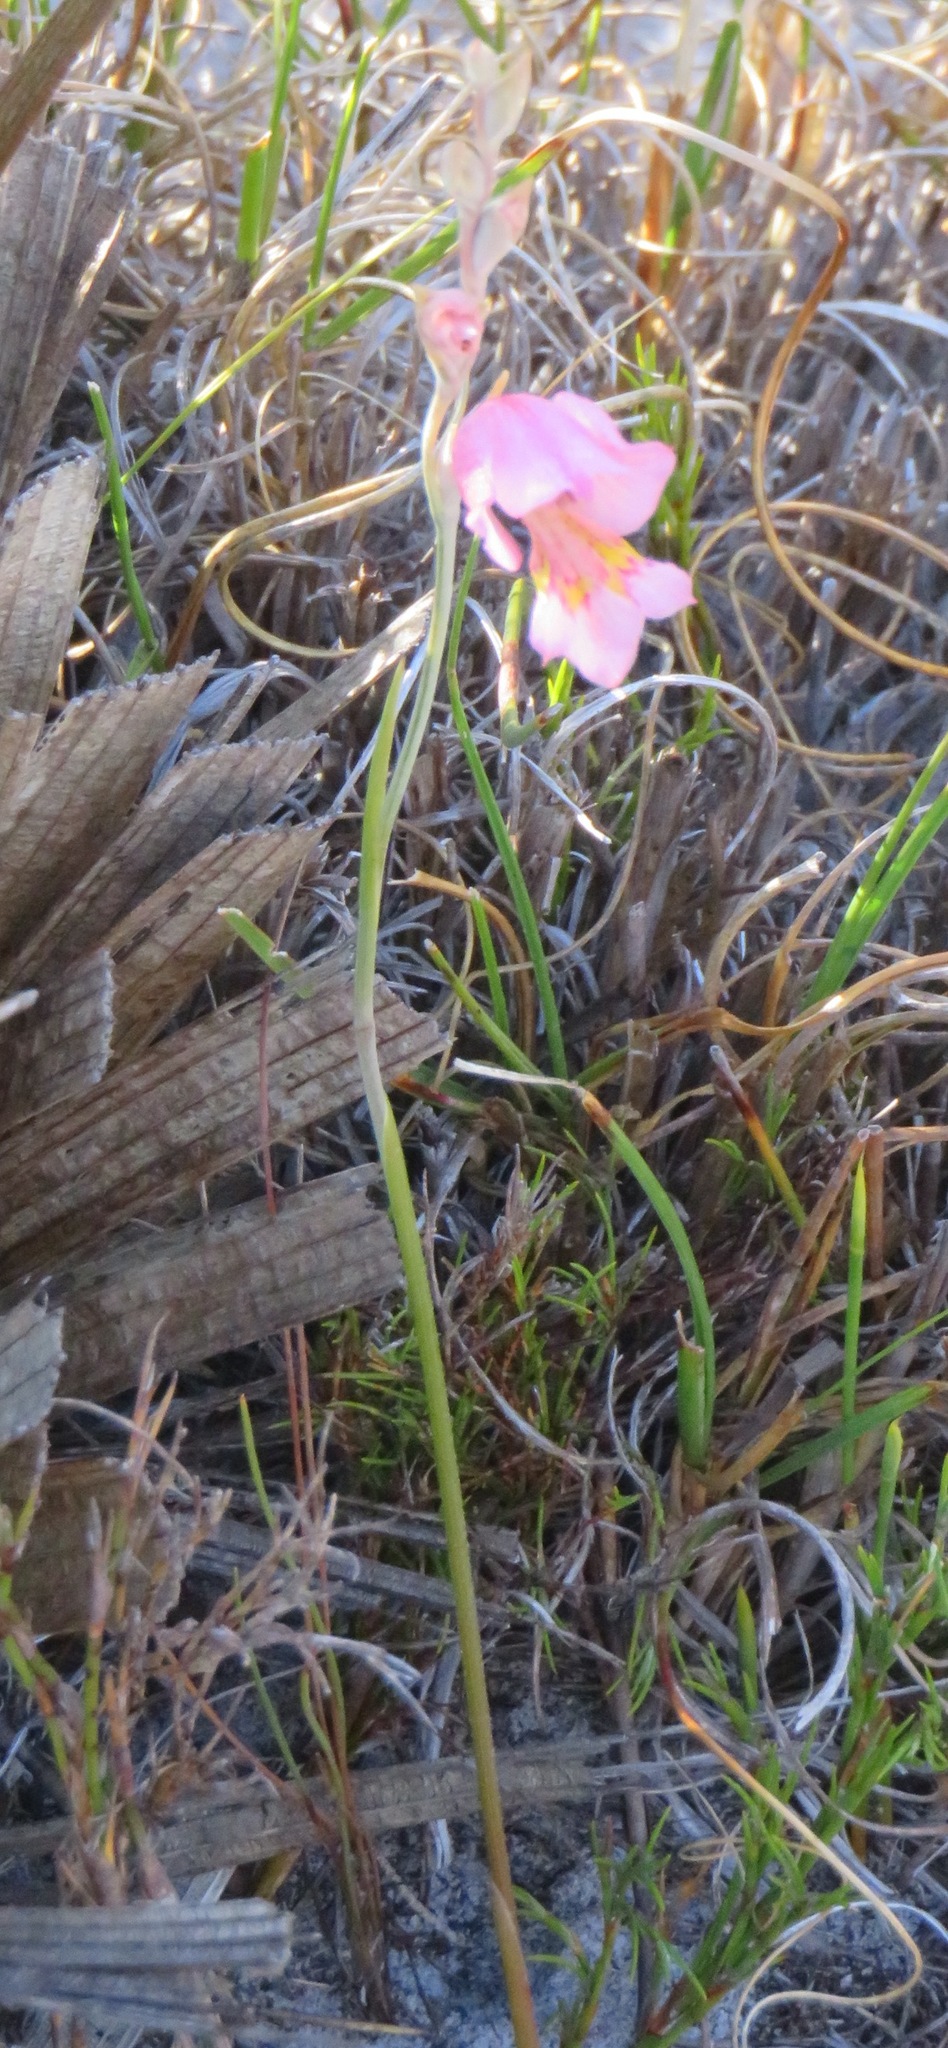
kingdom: Plantae
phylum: Tracheophyta
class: Liliopsida
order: Asparagales
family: Iridaceae
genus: Gladiolus
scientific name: Gladiolus brevifolius
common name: March pypie
